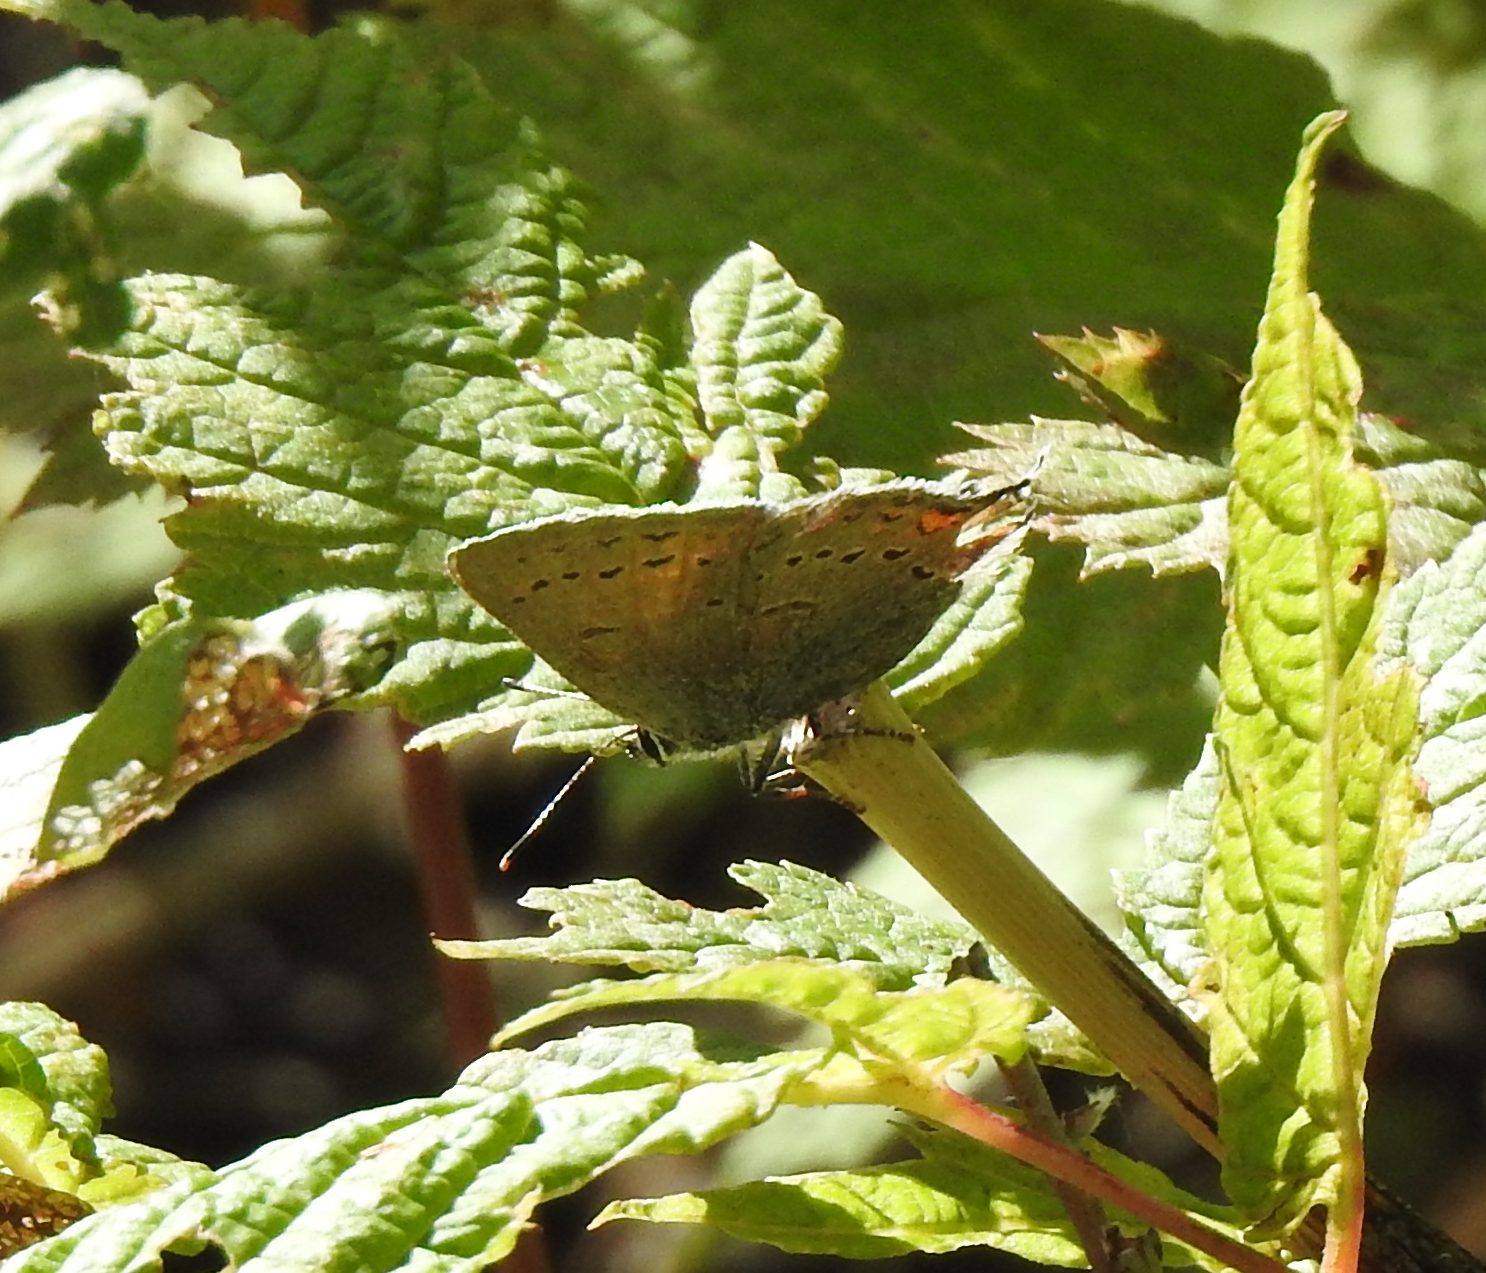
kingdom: Animalia
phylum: Arthropoda
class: Insecta
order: Lepidoptera
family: Lycaenidae
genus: Strymon
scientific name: Strymon sylvinus
